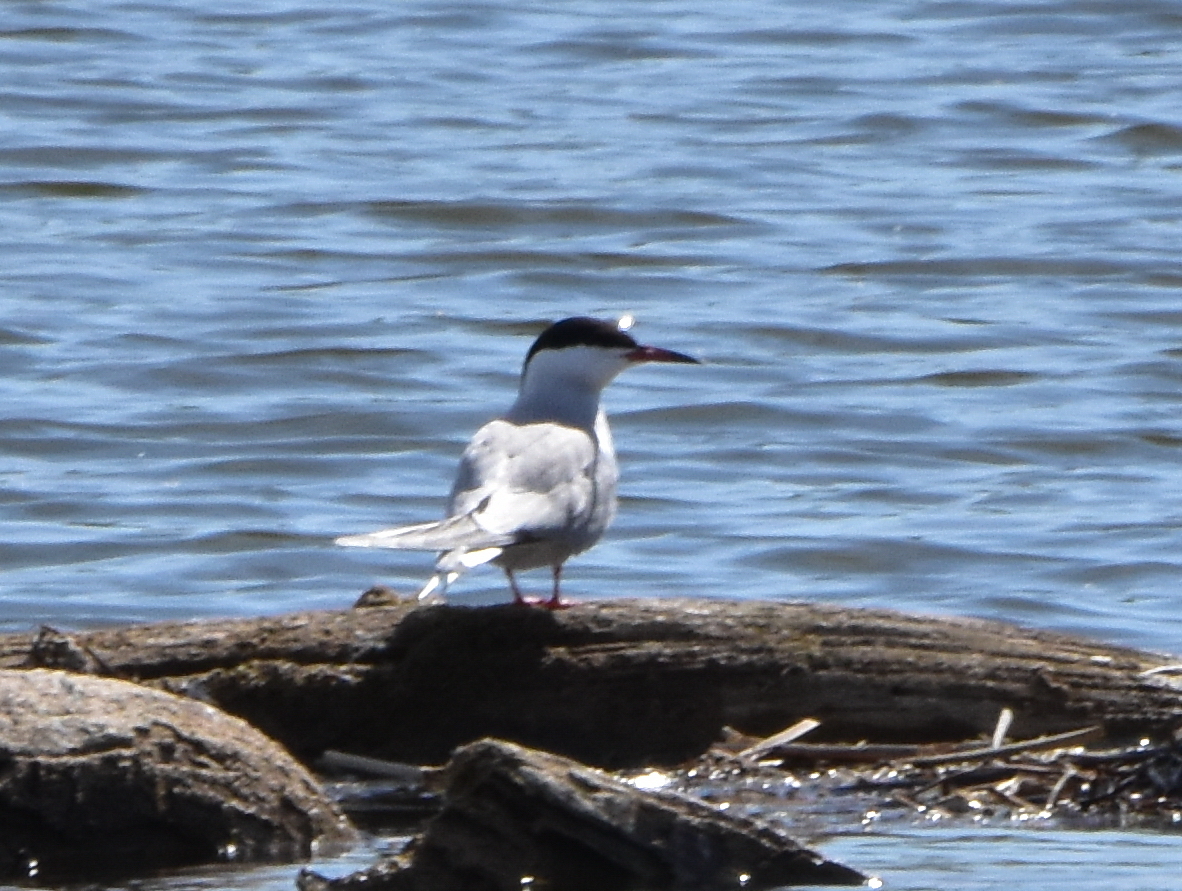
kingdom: Animalia
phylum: Chordata
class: Aves
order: Charadriiformes
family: Laridae
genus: Sterna
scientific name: Sterna hirundo
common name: Common tern
